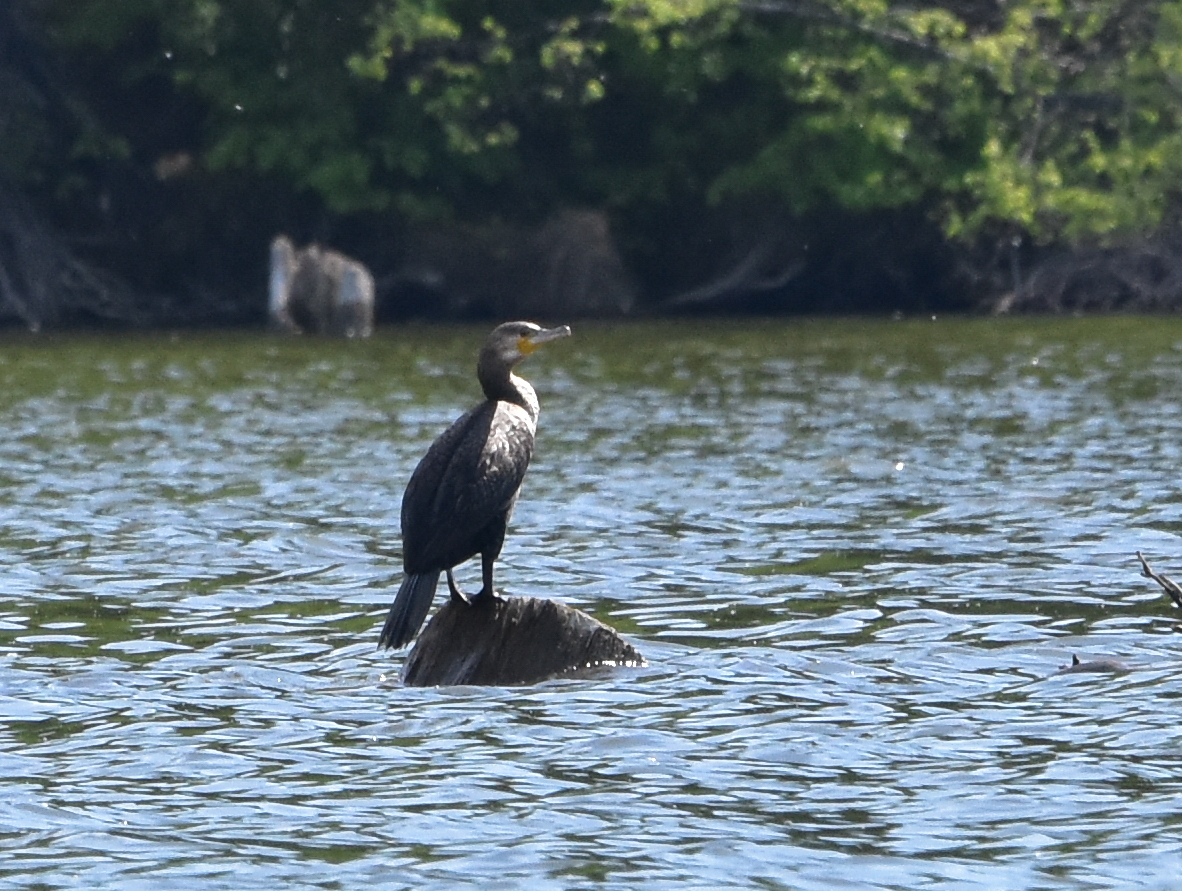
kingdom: Animalia
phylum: Chordata
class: Aves
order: Suliformes
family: Phalacrocoracidae
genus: Phalacrocorax
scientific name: Phalacrocorax carbo
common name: Great cormorant
